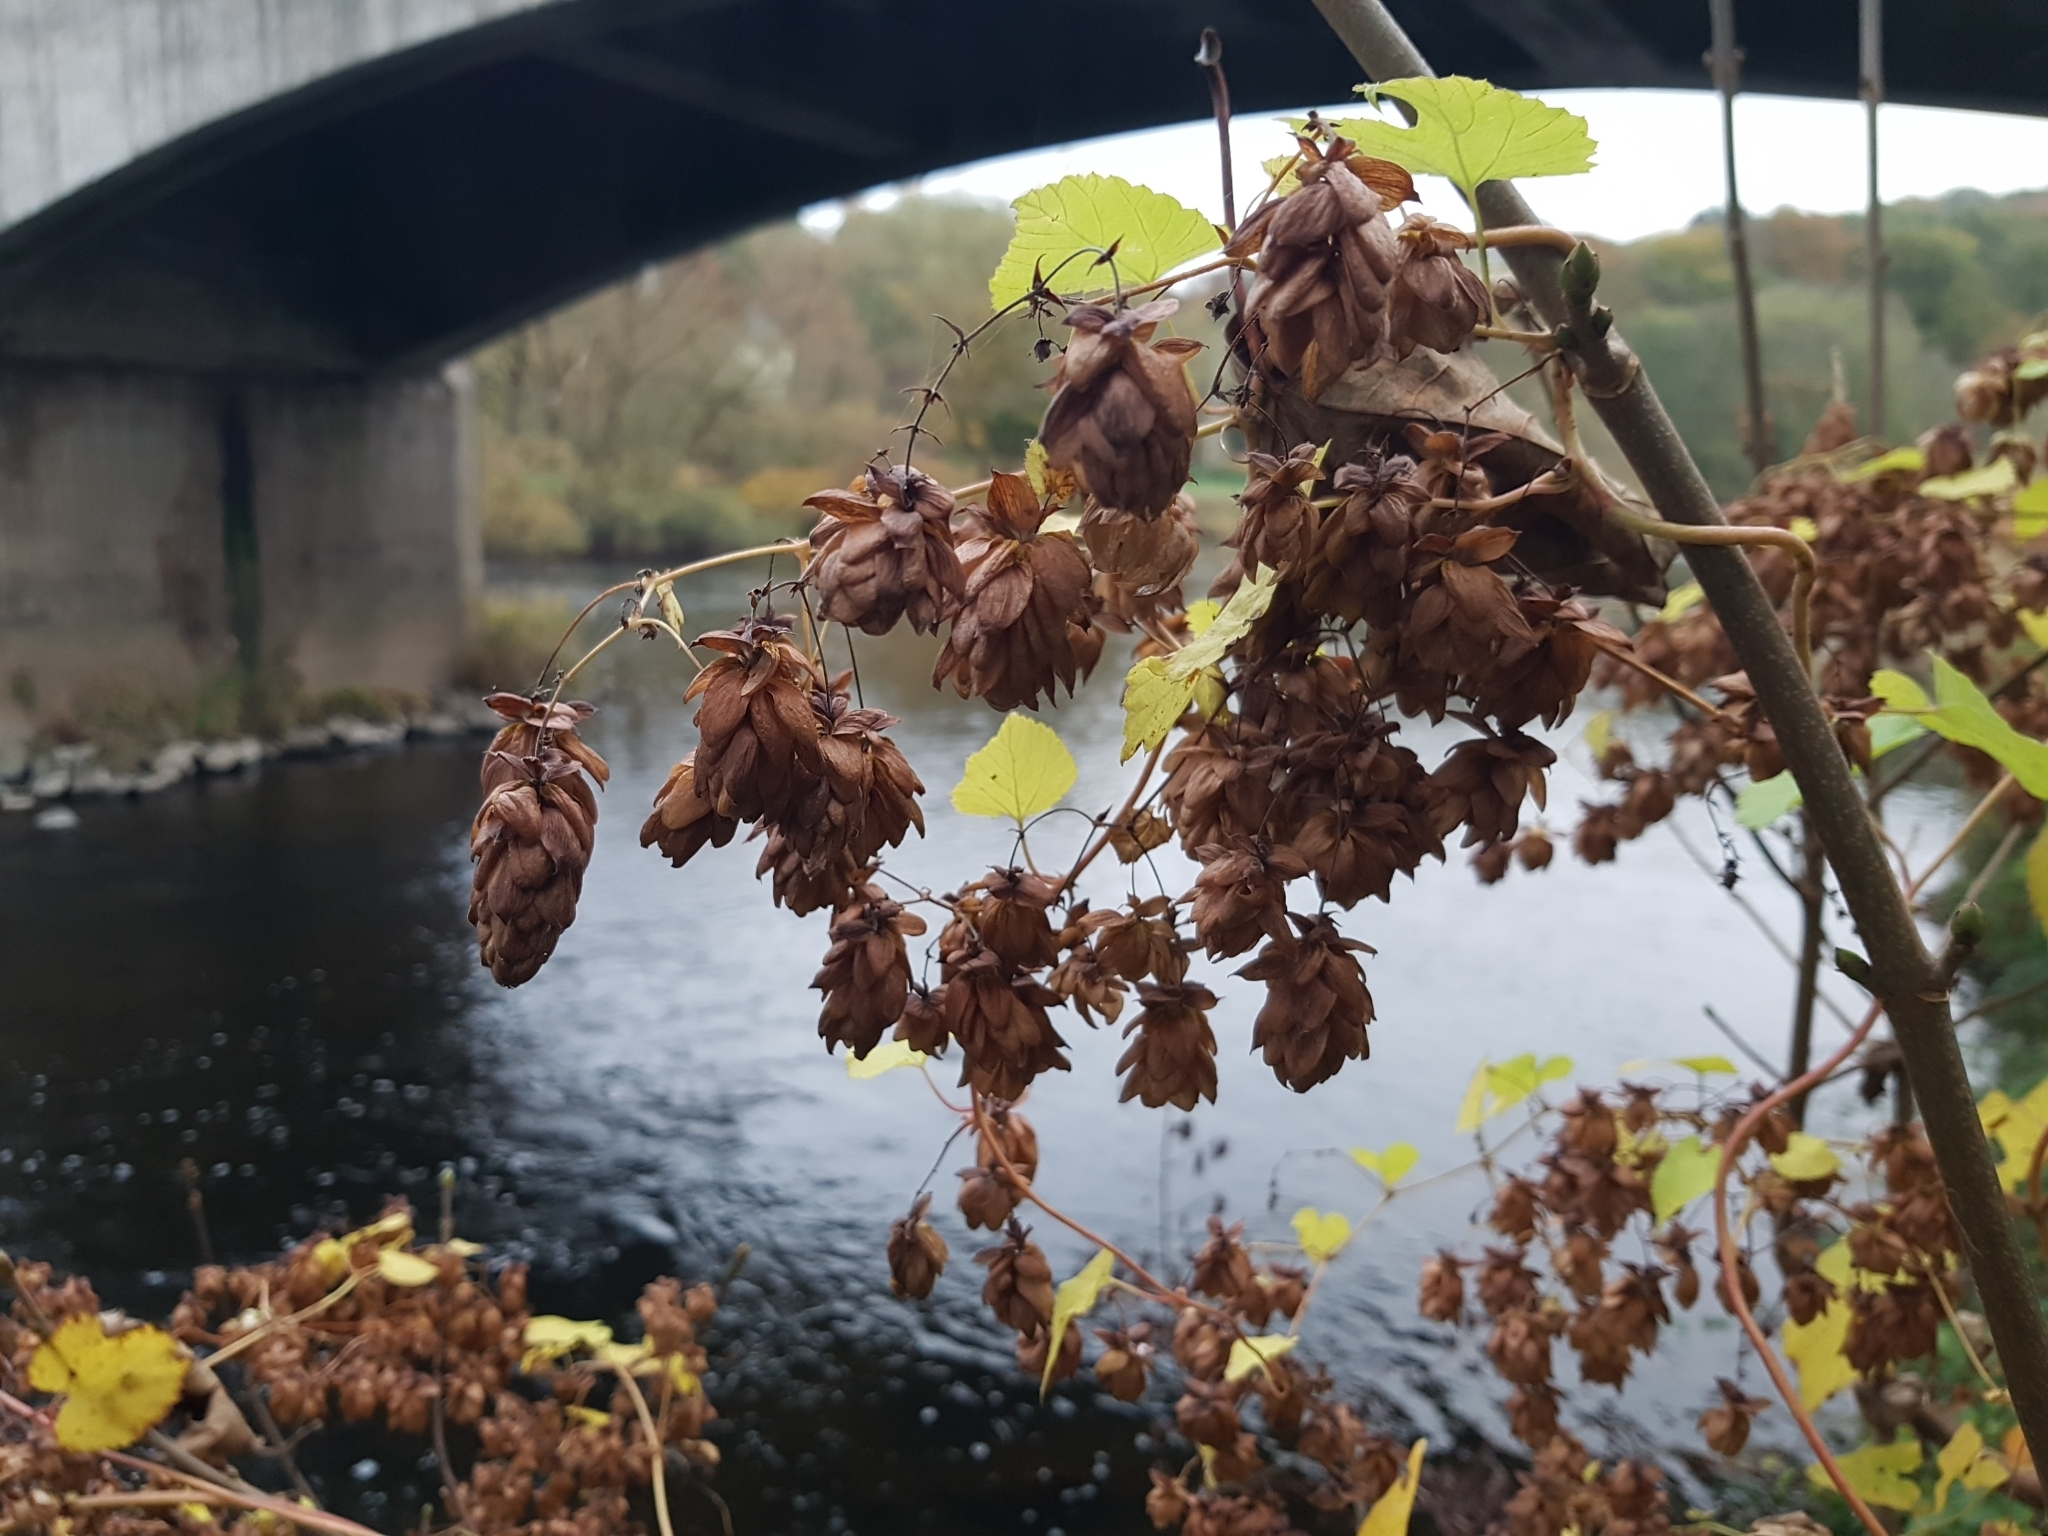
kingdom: Plantae
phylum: Tracheophyta
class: Magnoliopsida
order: Rosales
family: Cannabaceae
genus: Humulus
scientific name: Humulus lupulus
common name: Hop
